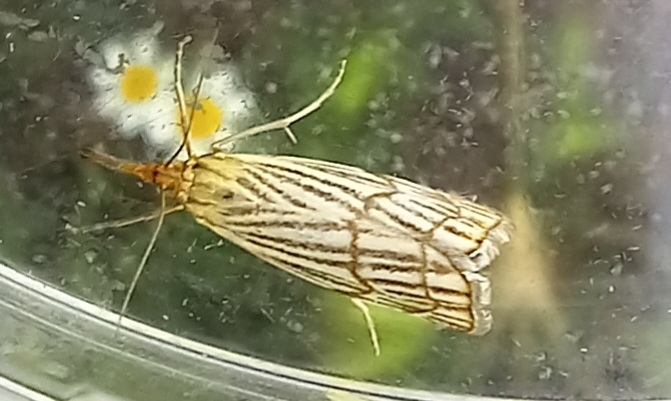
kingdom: Animalia
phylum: Arthropoda
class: Insecta
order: Lepidoptera
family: Crambidae
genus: Chrysocrambus
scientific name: Chrysocrambus linetella
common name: Orange-bar grass-veneer
